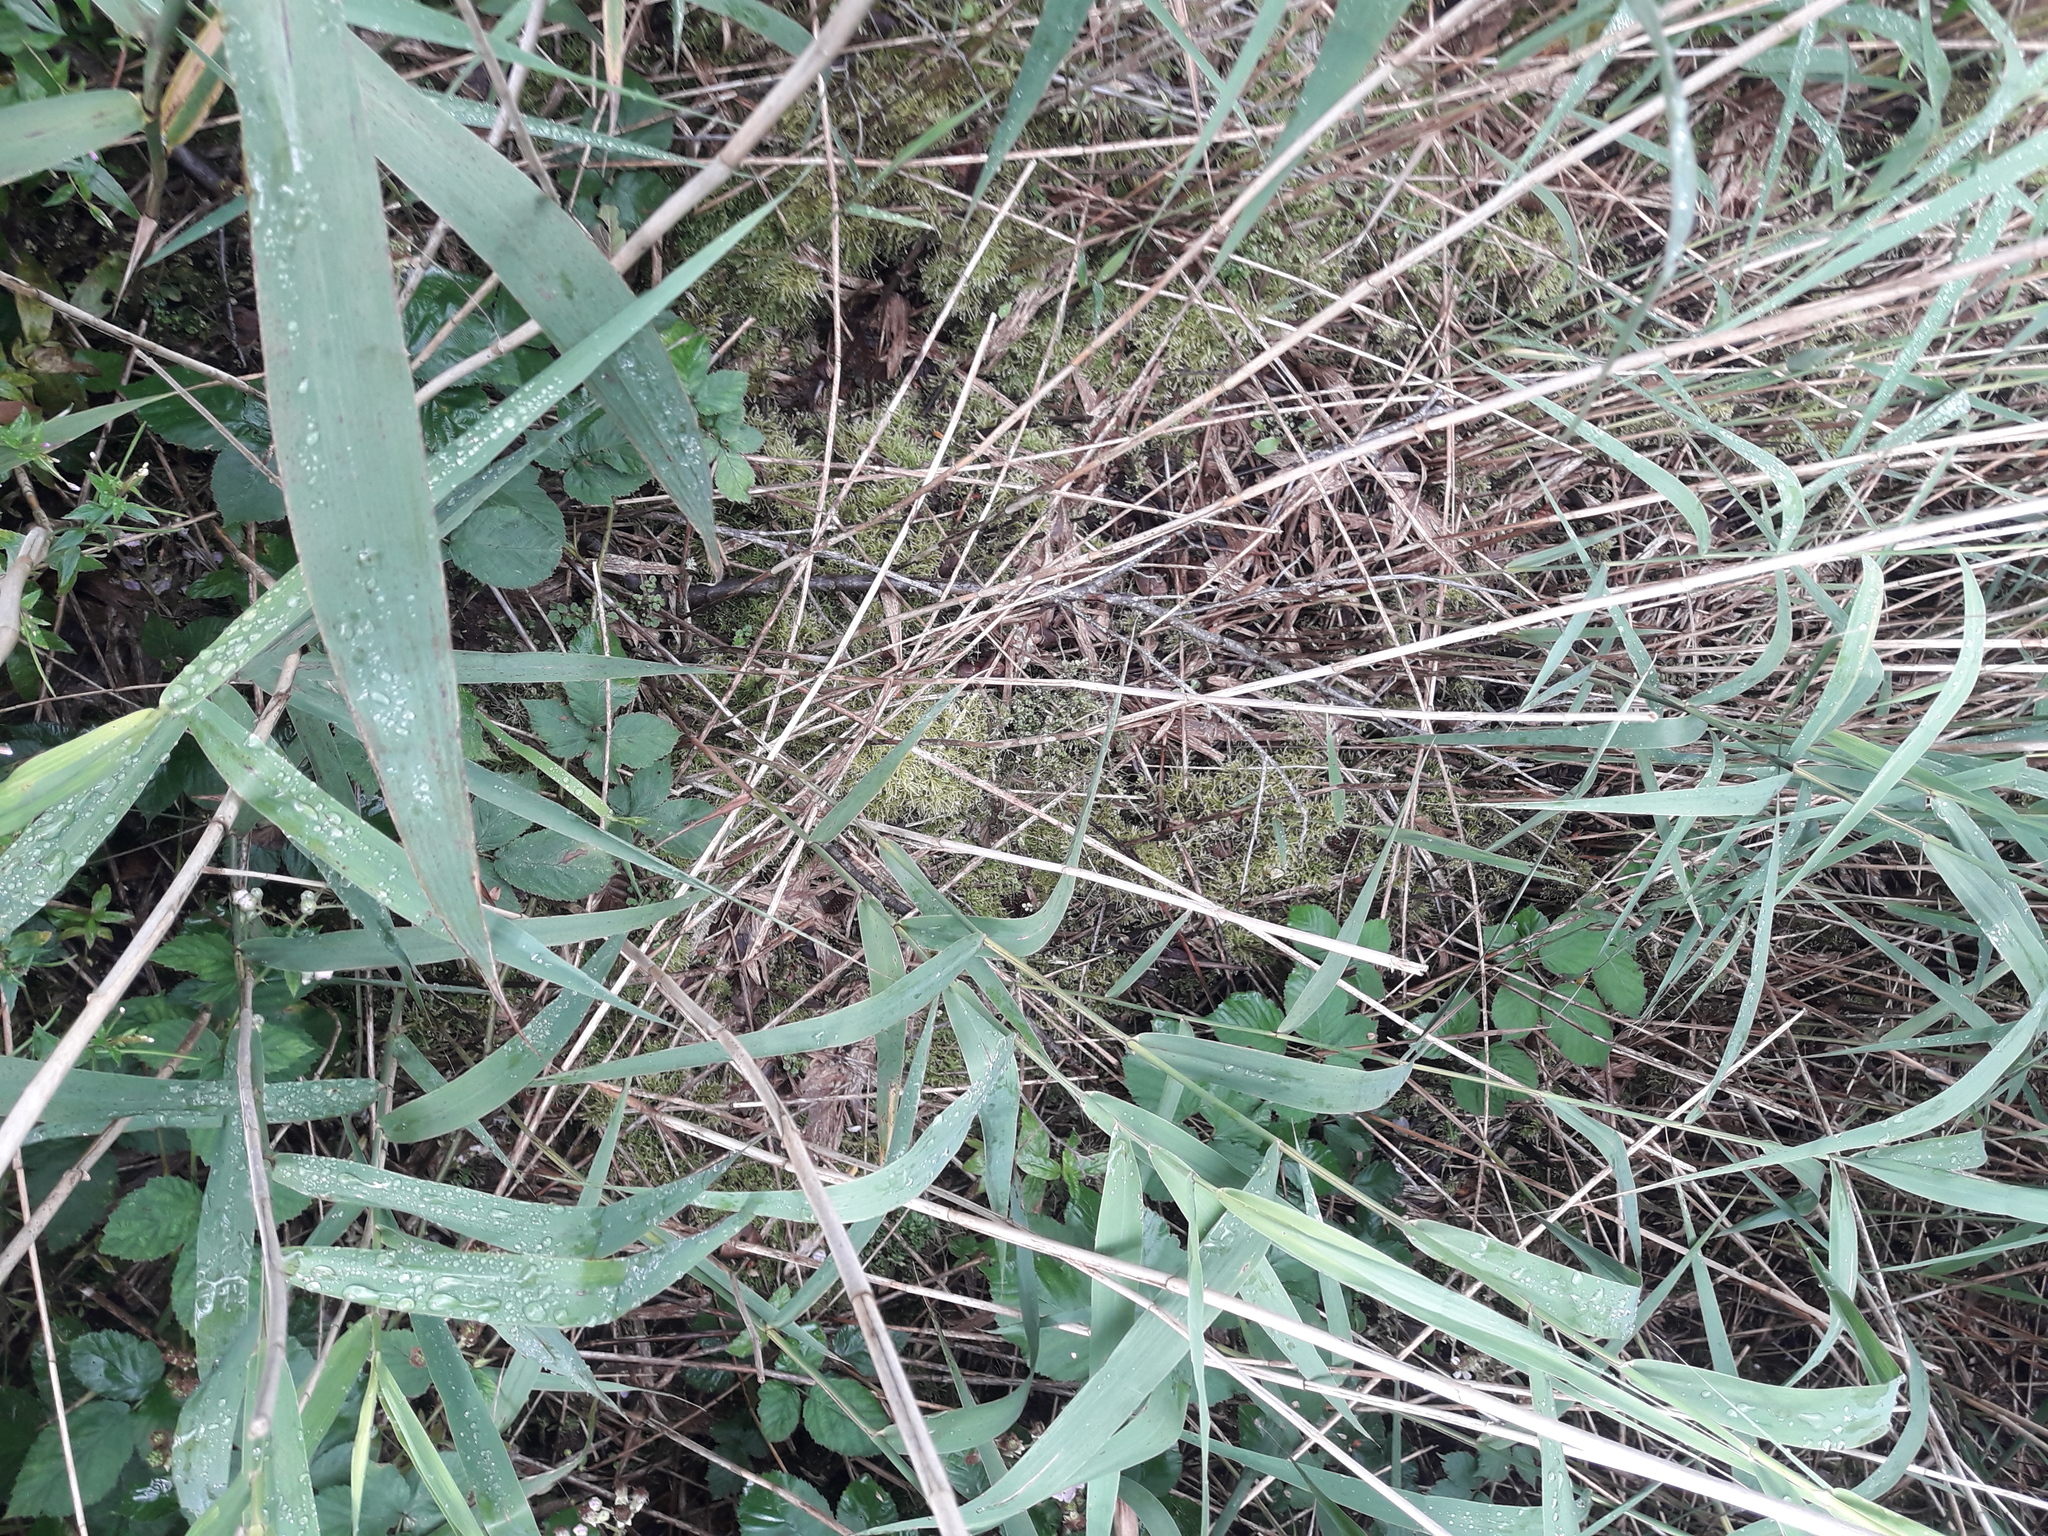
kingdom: Plantae
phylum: Tracheophyta
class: Liliopsida
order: Poales
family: Poaceae
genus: Phragmites
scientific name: Phragmites australis
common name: Common reed
